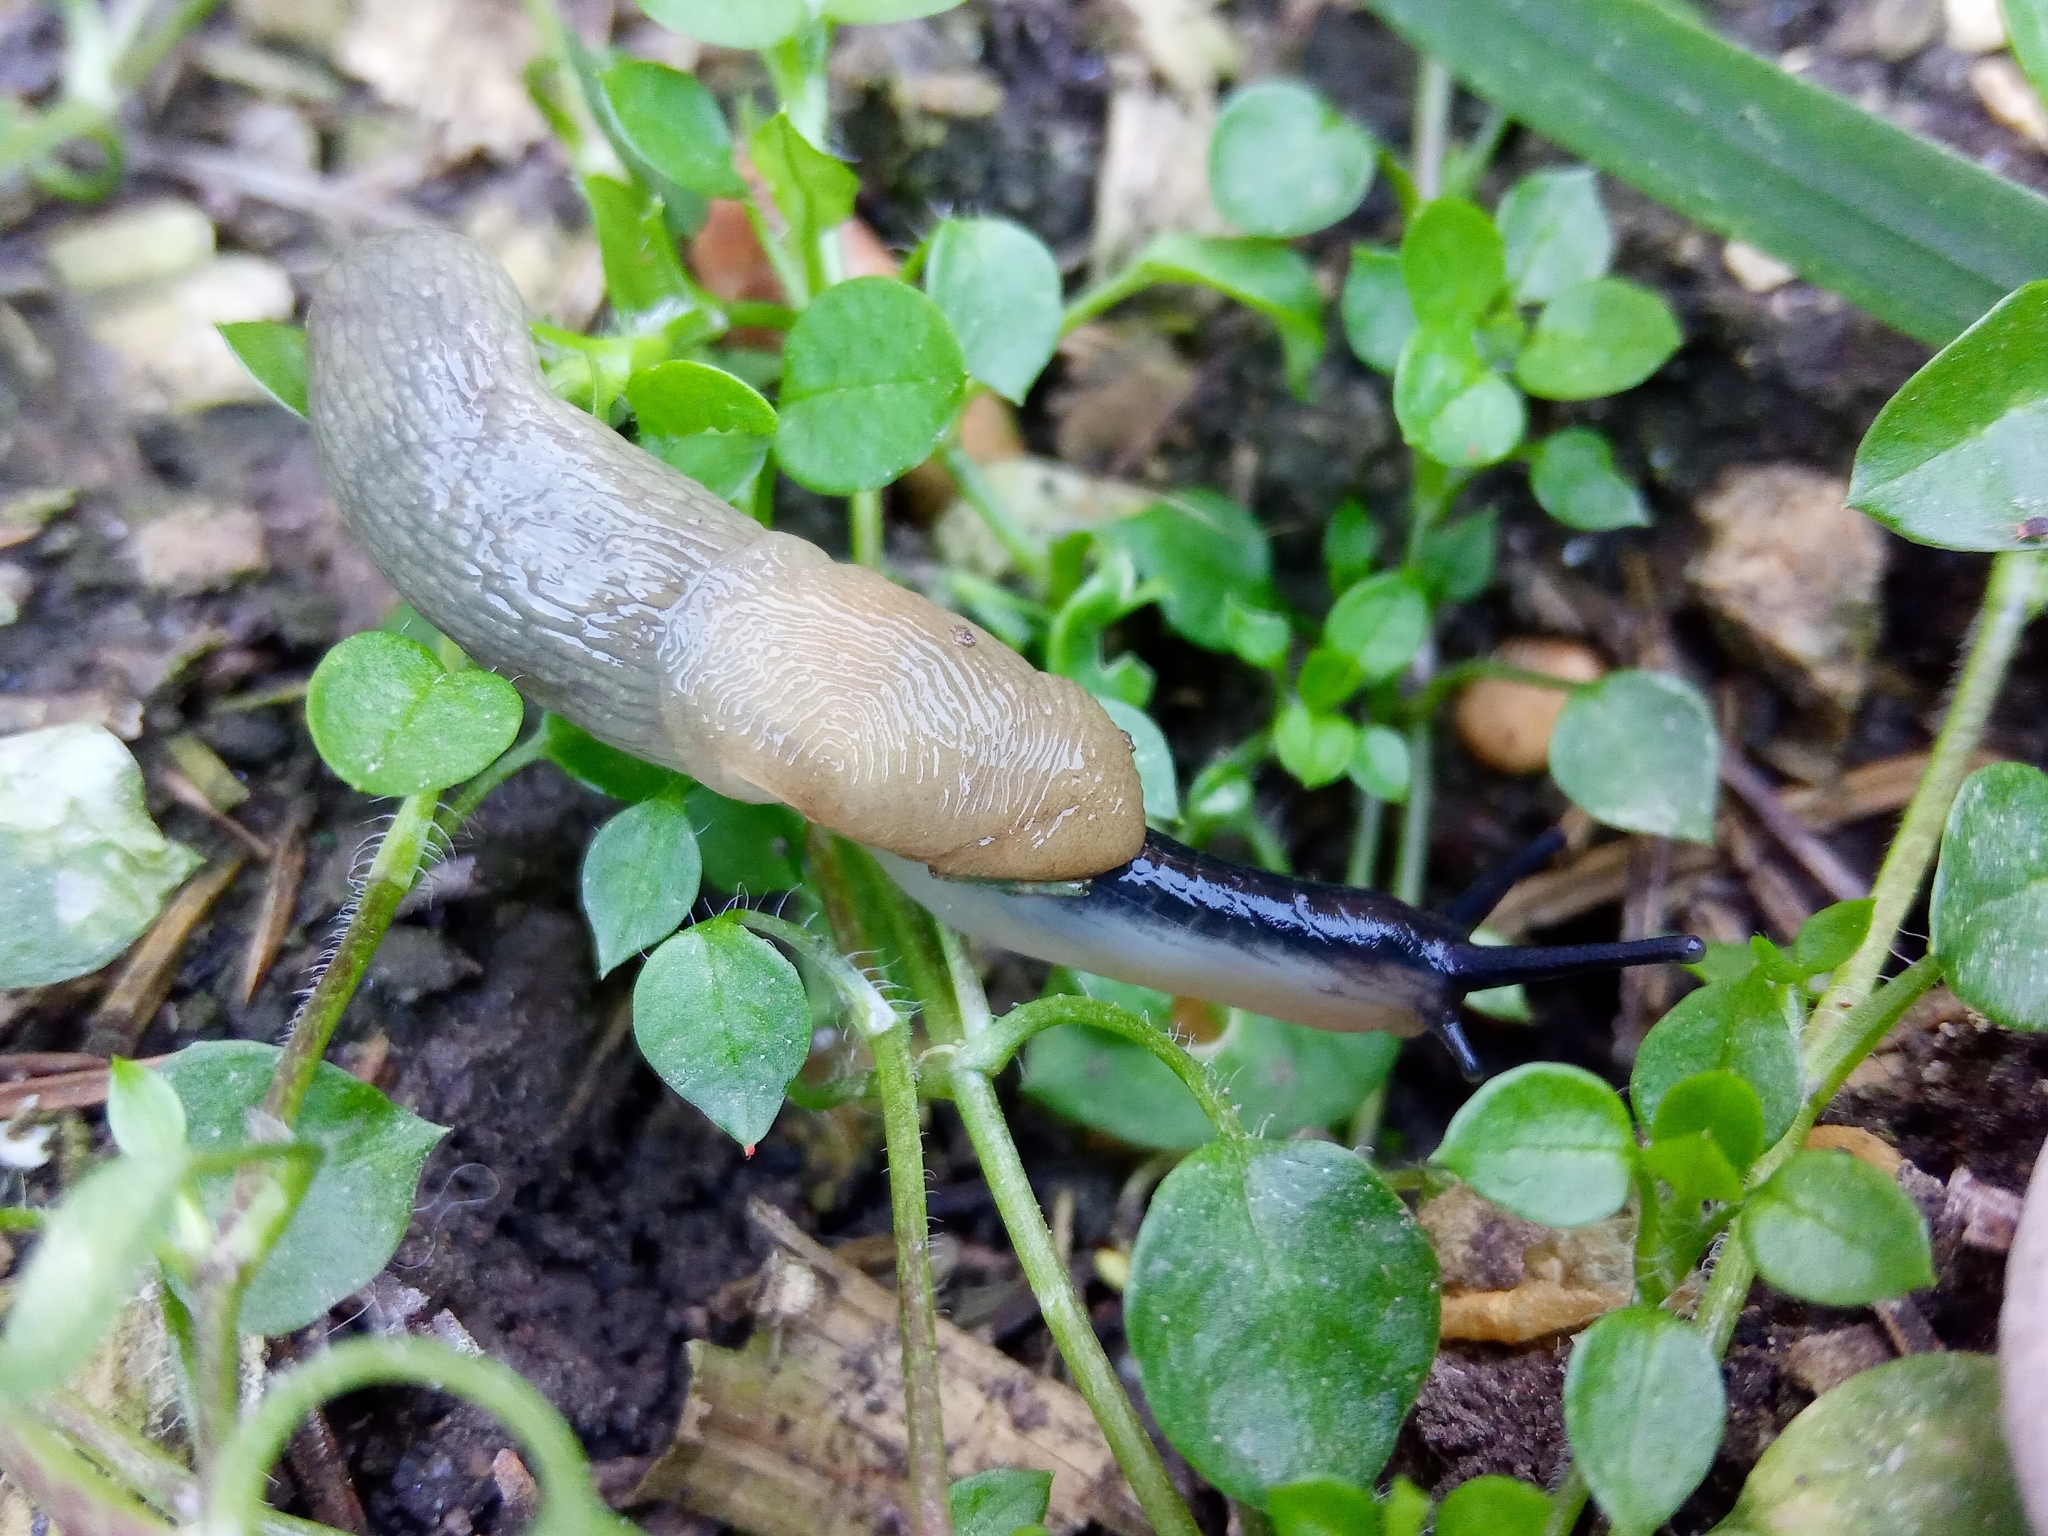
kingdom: Animalia
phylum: Mollusca
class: Gastropoda
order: Stylommatophora
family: Agriolimacidae
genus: Krynickillus
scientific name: Krynickillus melanocephalus
